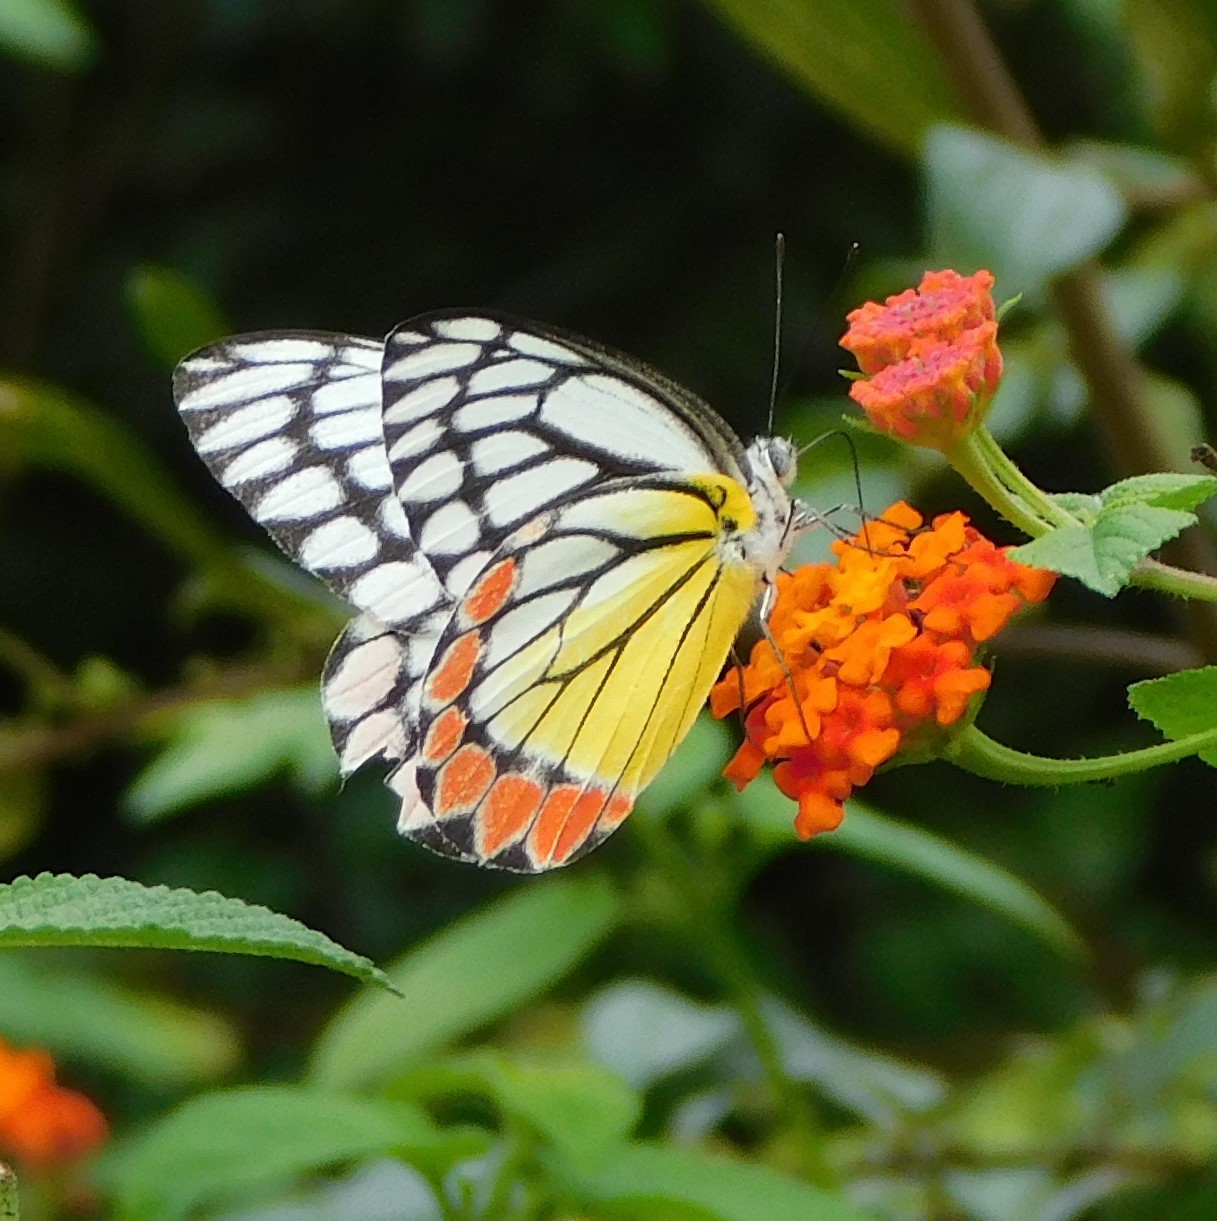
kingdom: Animalia
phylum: Arthropoda
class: Insecta
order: Lepidoptera
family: Pieridae
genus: Delias
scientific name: Delias eucharis
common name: Common jezebel
